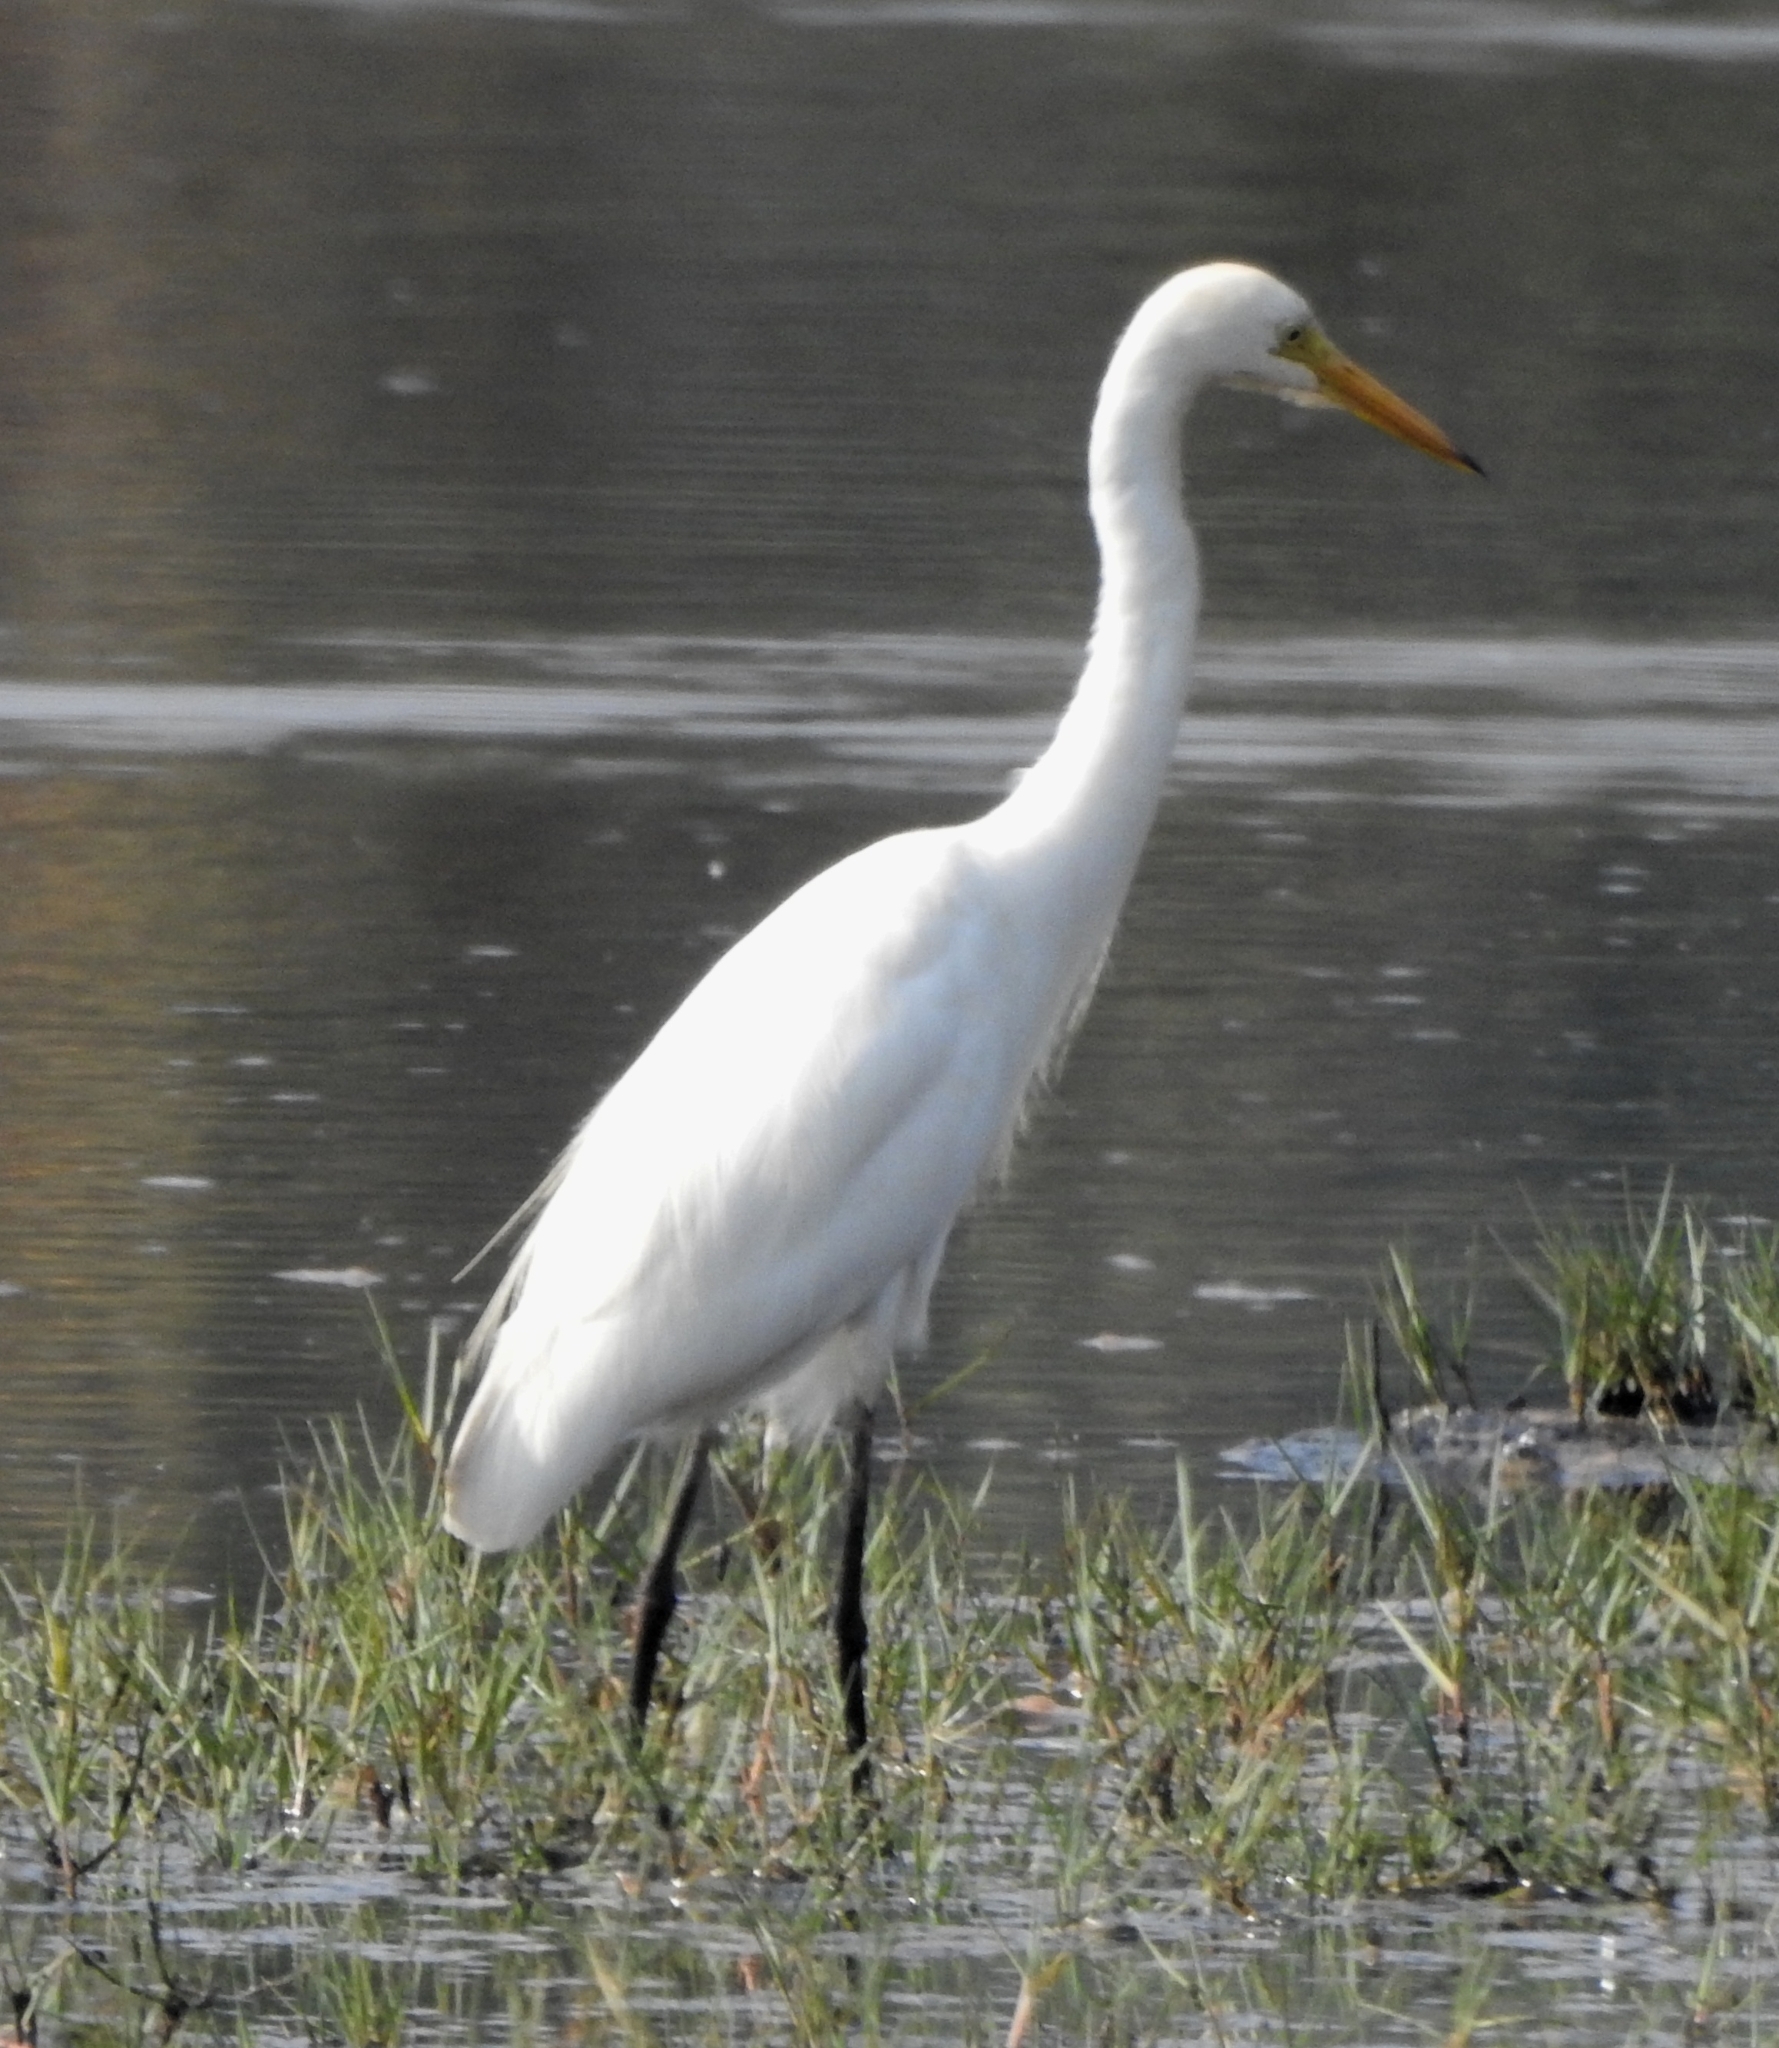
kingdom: Animalia
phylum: Chordata
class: Aves
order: Pelecaniformes
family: Ardeidae
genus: Egretta
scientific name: Egretta intermedia
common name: Intermediate egret
